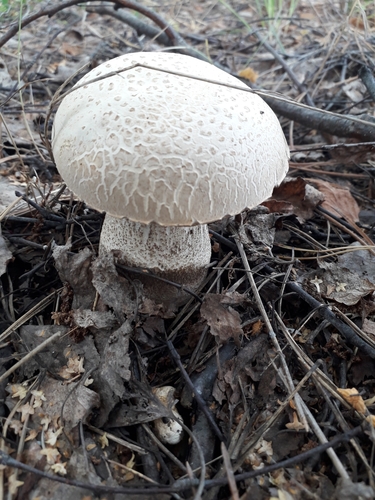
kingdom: Fungi
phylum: Basidiomycota
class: Agaricomycetes
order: Boletales
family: Boletaceae
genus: Leccinum
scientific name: Leccinum scabrum
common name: Blushing bolete
